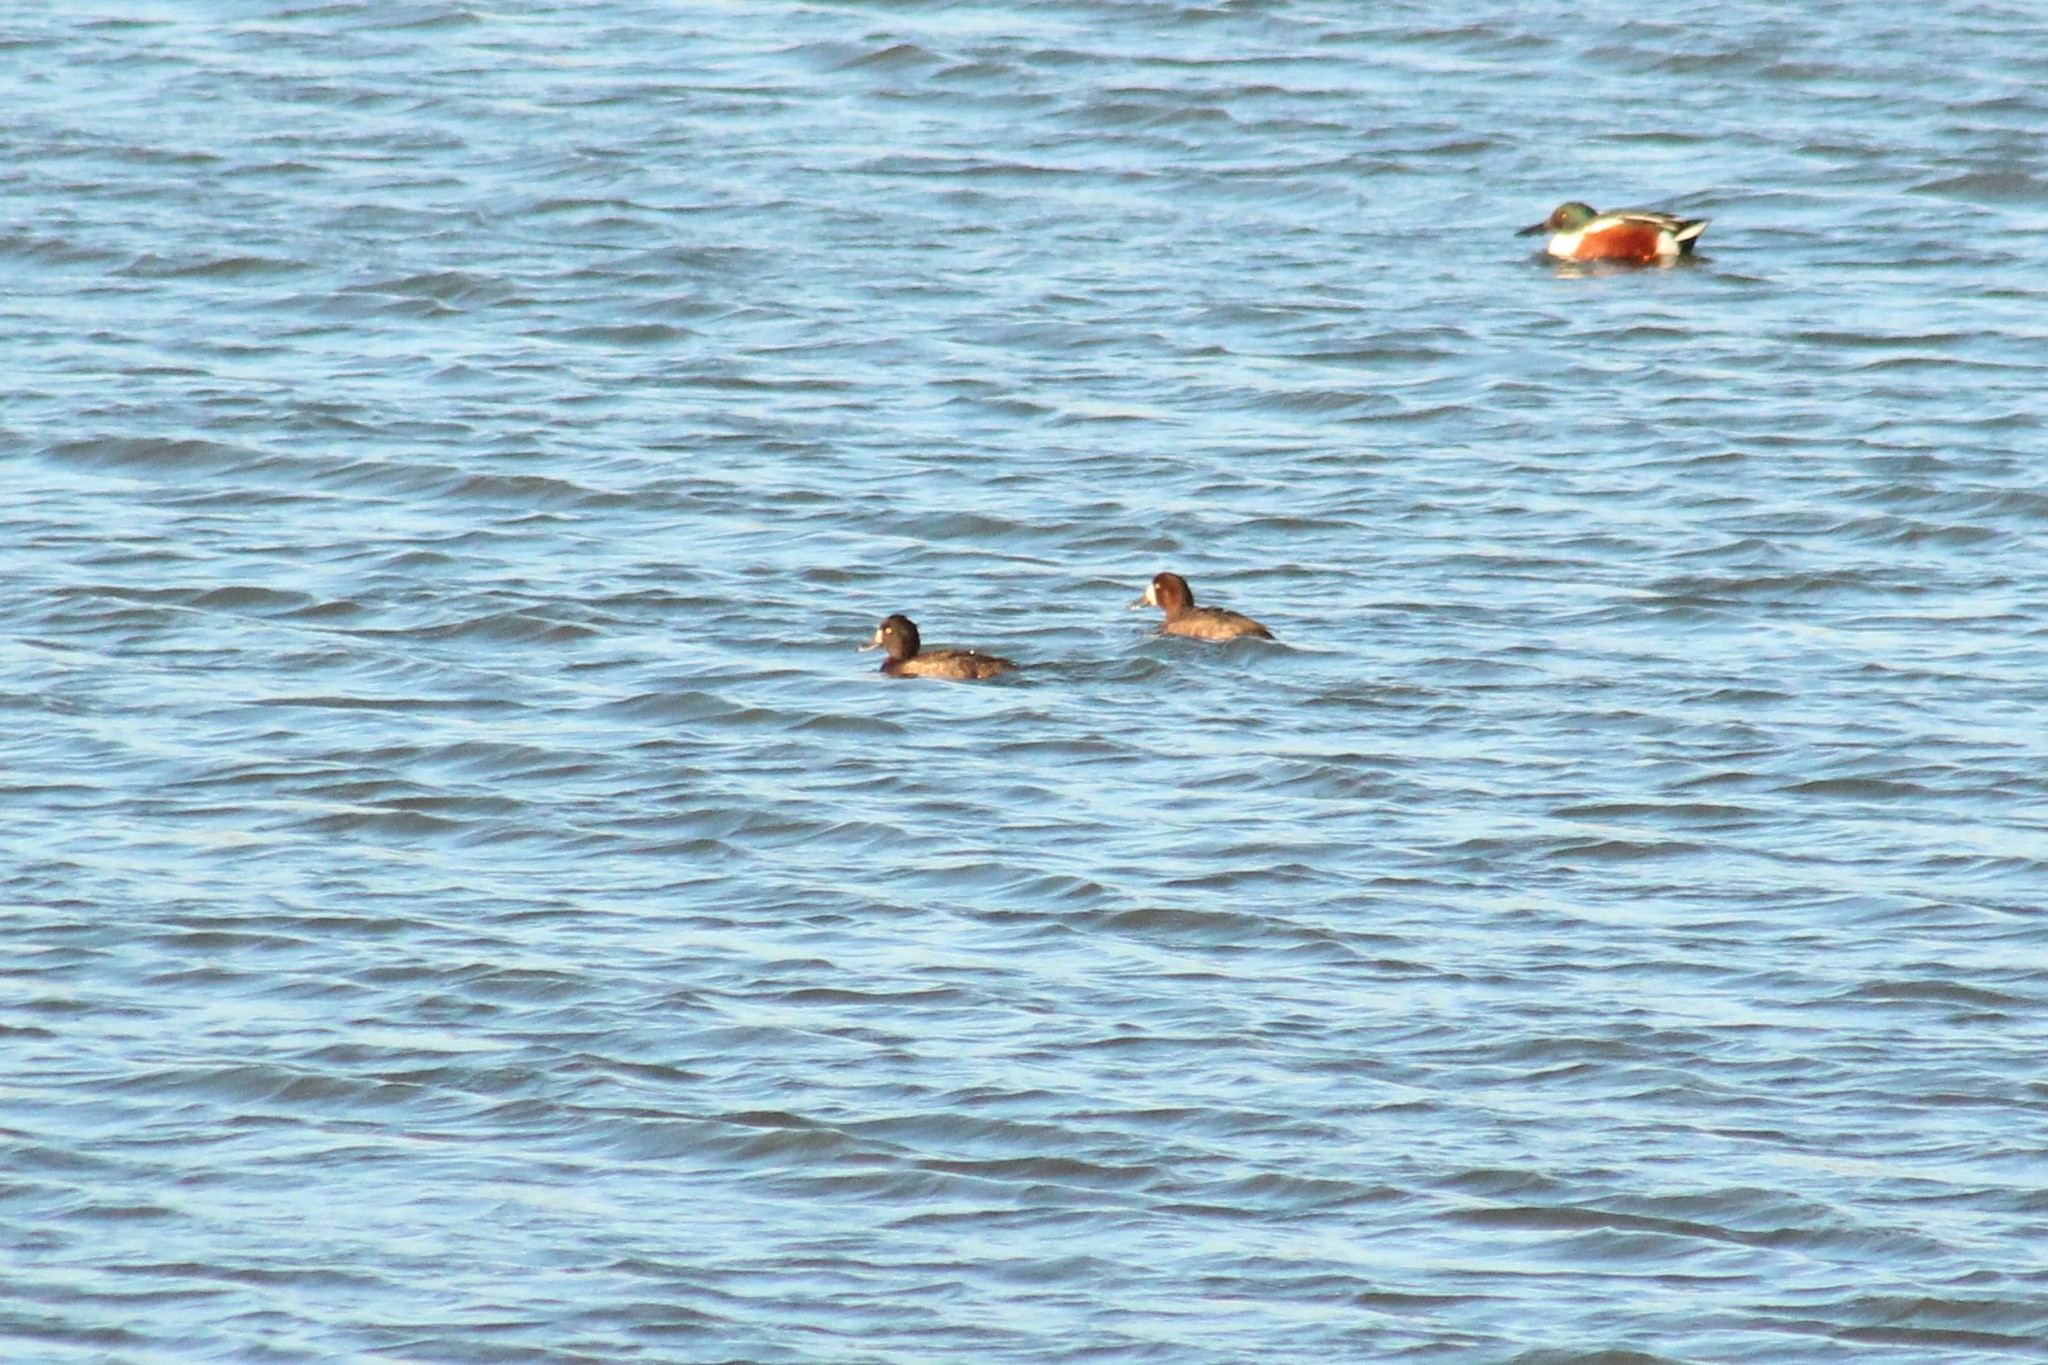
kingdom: Animalia
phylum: Chordata
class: Aves
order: Anseriformes
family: Anatidae
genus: Aythya
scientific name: Aythya fuligula
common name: Tufted duck
